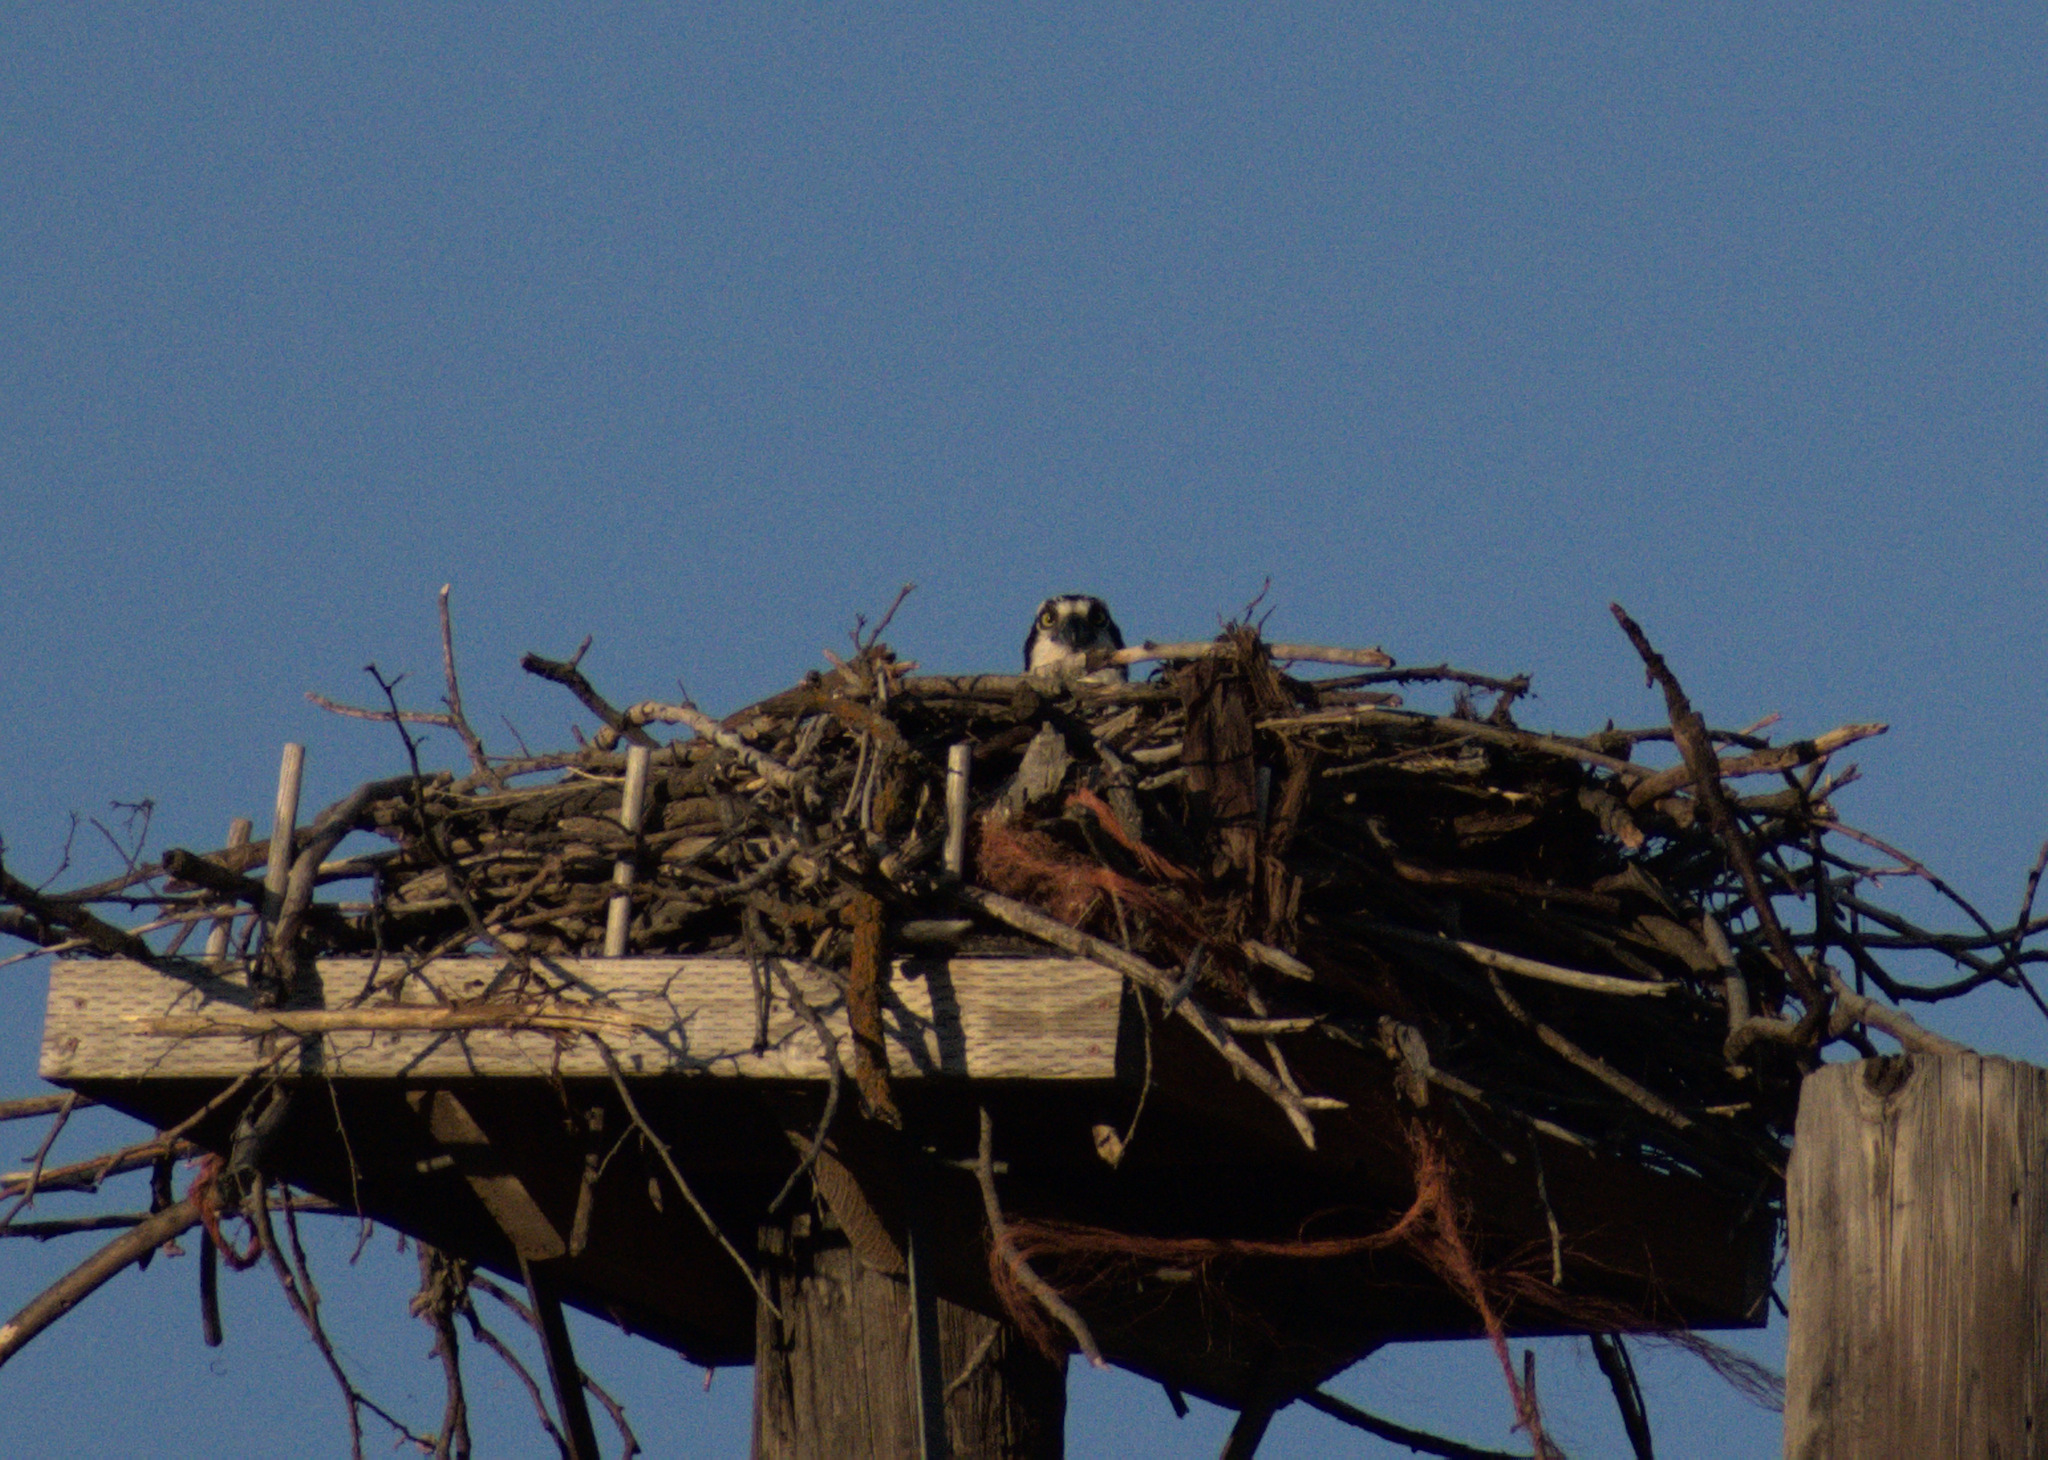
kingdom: Animalia
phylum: Chordata
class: Aves
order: Accipitriformes
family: Pandionidae
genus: Pandion
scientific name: Pandion haliaetus
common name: Osprey
